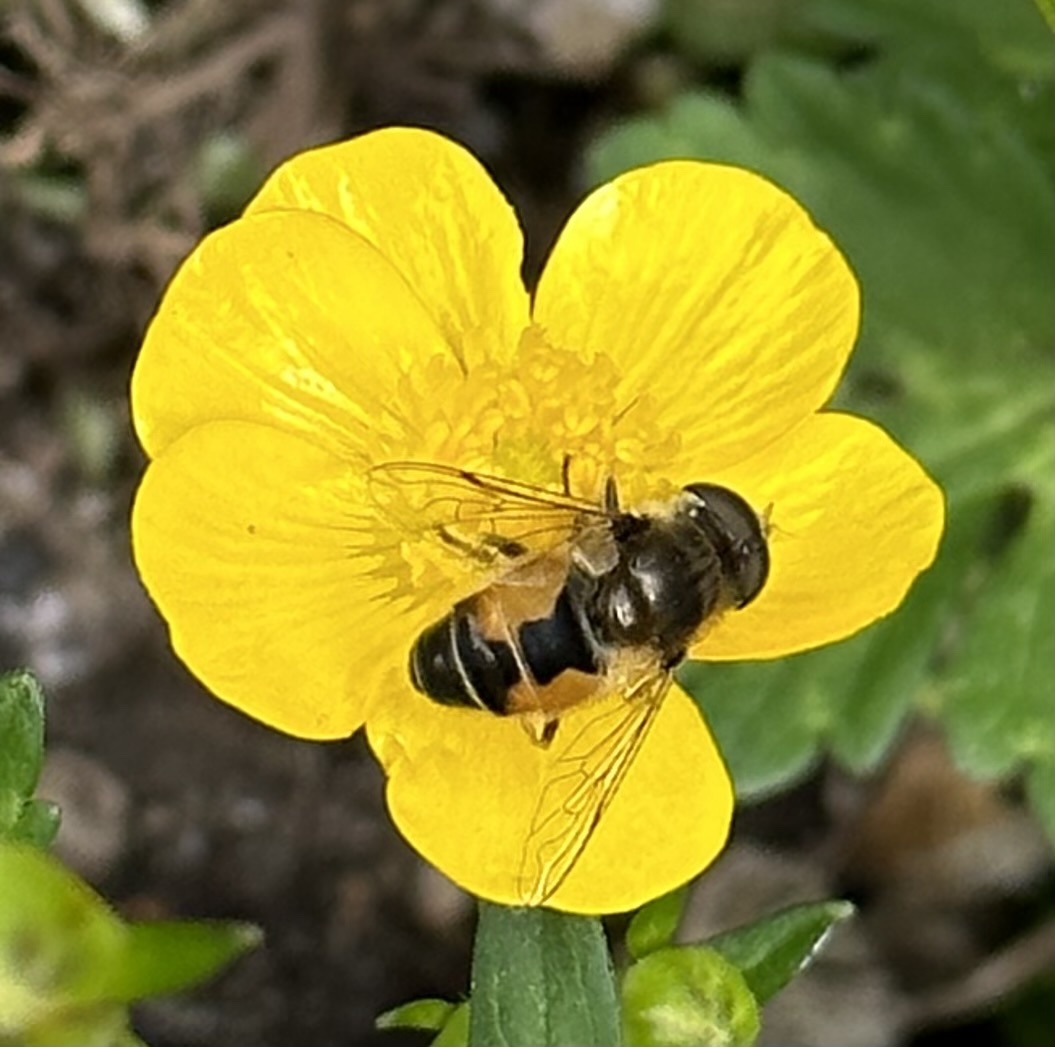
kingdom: Animalia
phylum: Arthropoda
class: Insecta
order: Diptera
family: Syrphidae
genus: Eristalis
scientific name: Eristalis arbustorum
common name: Hover fly
